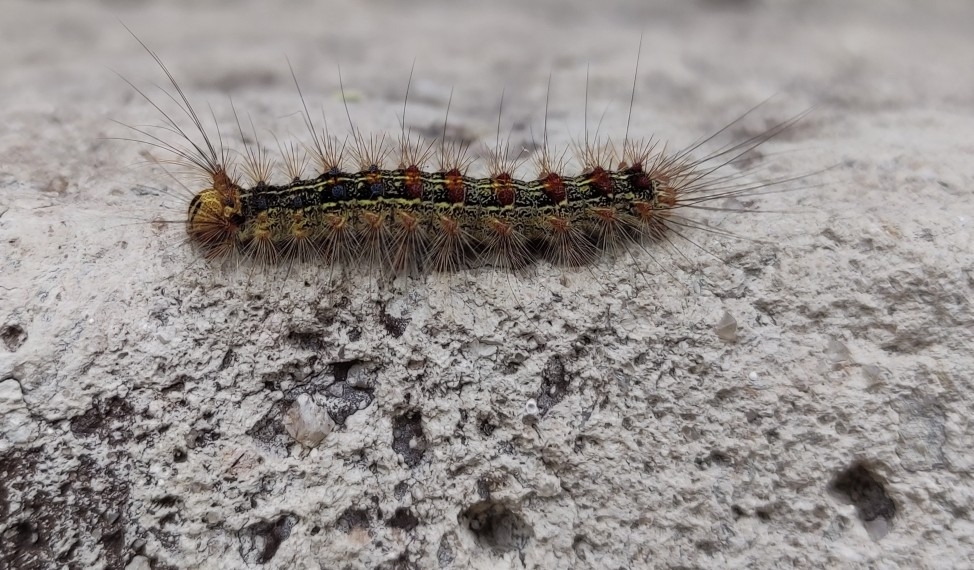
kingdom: Animalia
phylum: Arthropoda
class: Insecta
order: Lepidoptera
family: Erebidae
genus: Lymantria
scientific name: Lymantria dispar
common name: Gypsy moth
